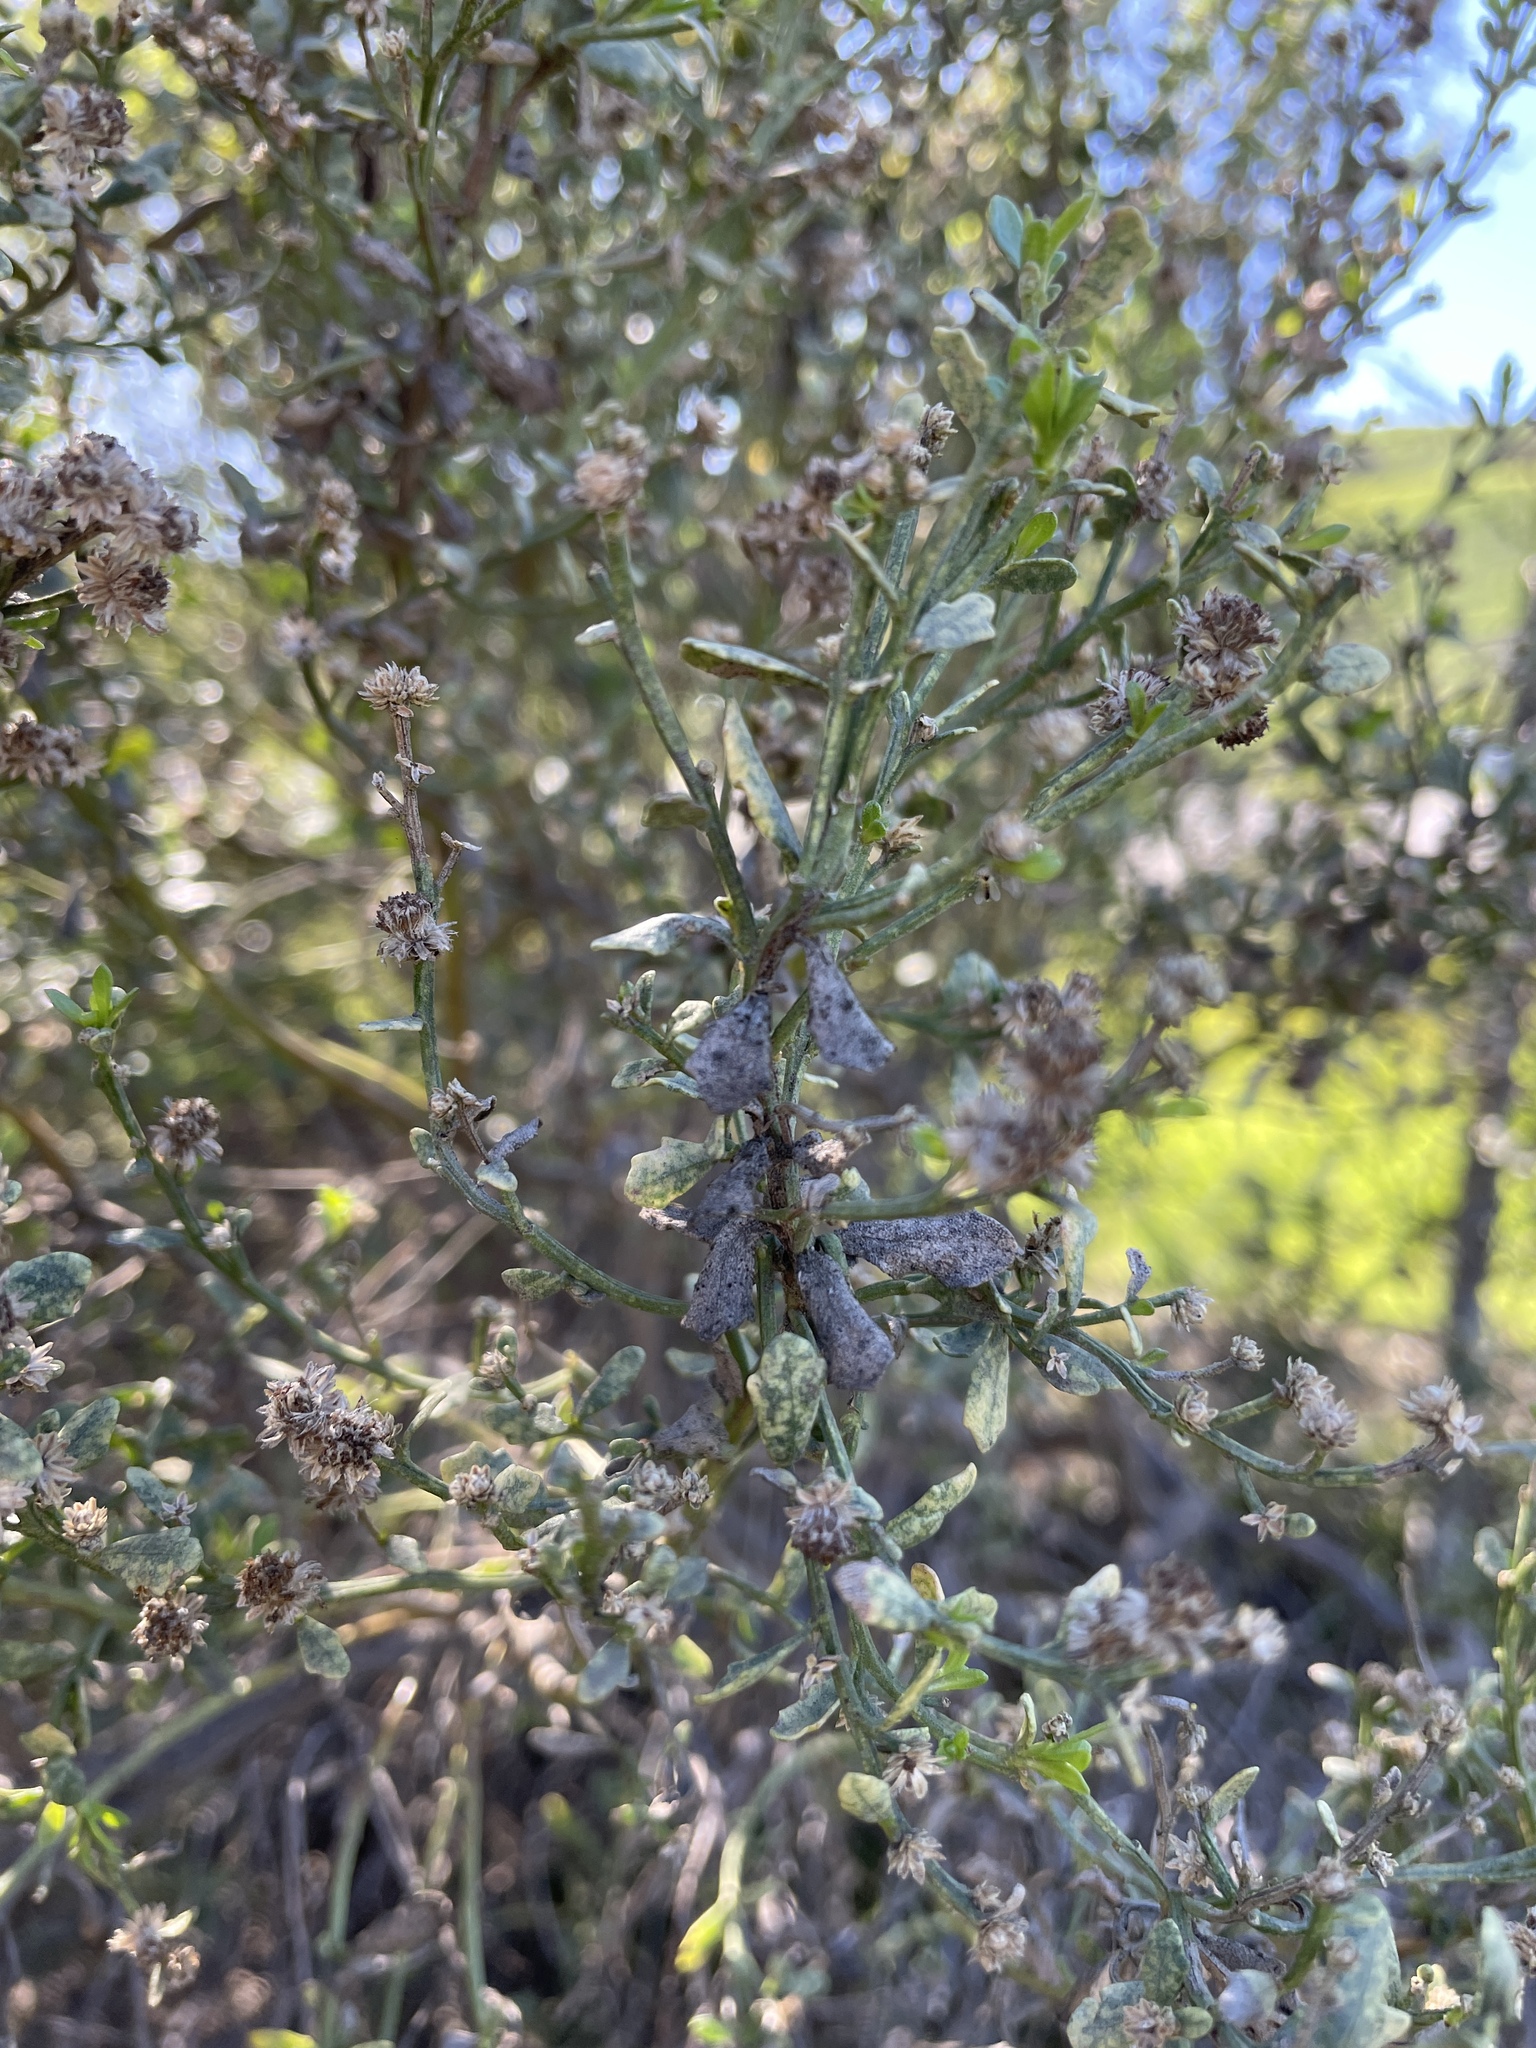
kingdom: Plantae
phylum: Tracheophyta
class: Magnoliopsida
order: Asterales
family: Asteraceae
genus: Baccharis
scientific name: Baccharis pilularis
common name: Coyotebrush
